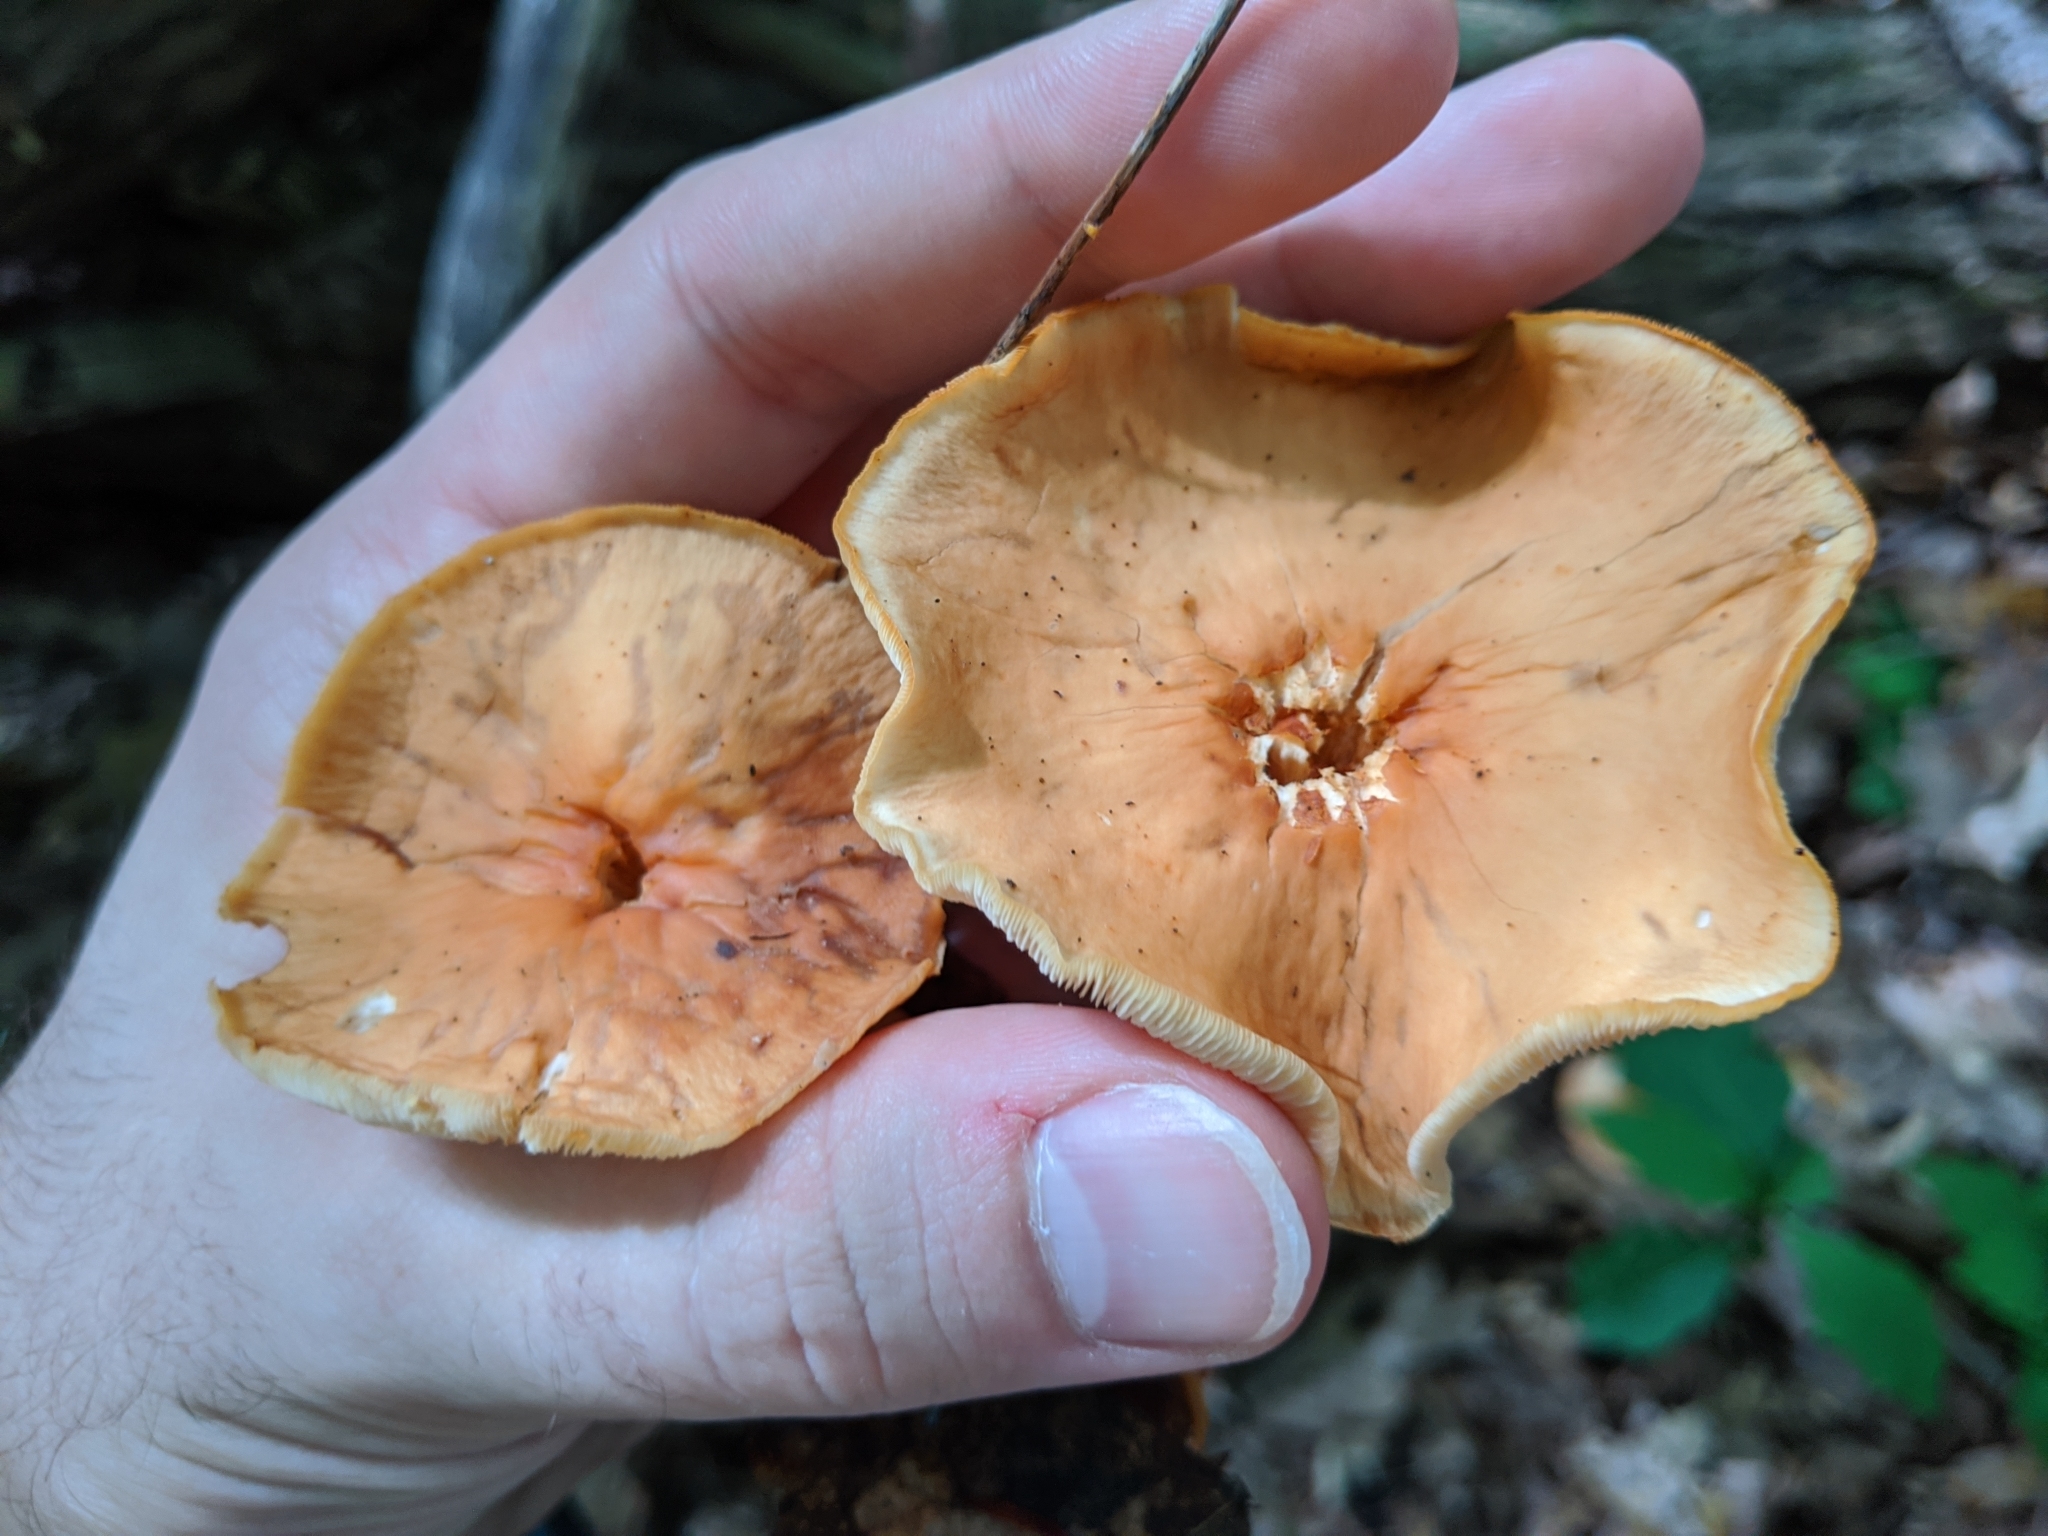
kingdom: Fungi
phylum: Basidiomycota
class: Agaricomycetes
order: Agaricales
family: Omphalotaceae
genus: Gymnopus
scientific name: Gymnopus dryophilus
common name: Penny top
